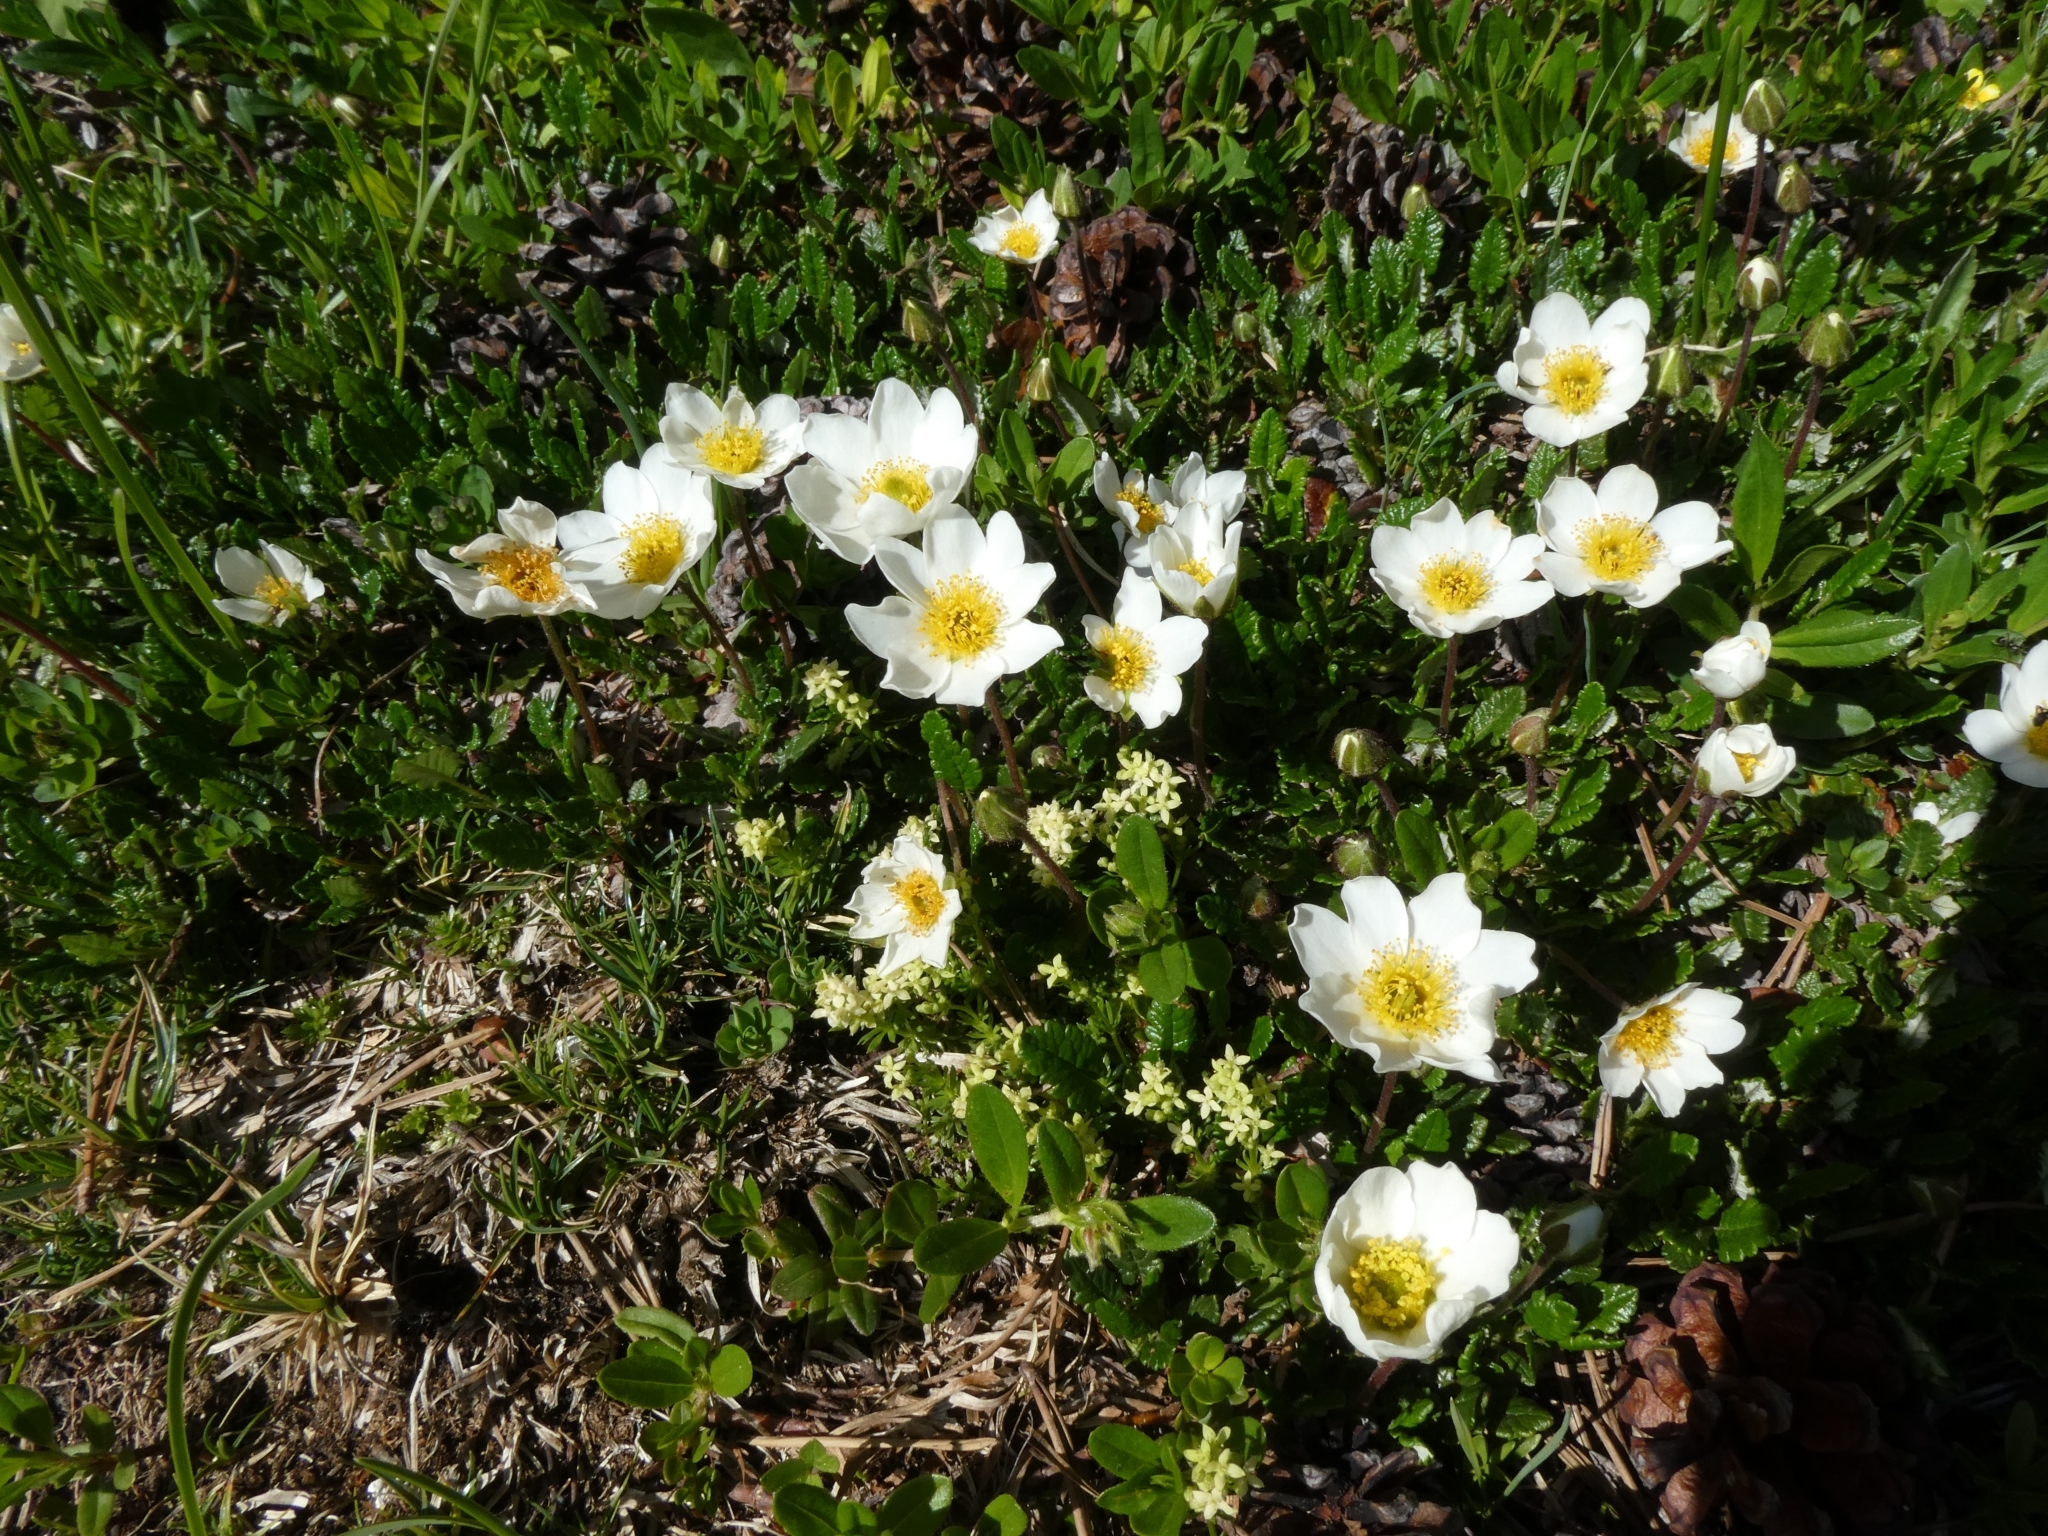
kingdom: Plantae
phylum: Tracheophyta
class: Magnoliopsida
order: Rosales
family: Rosaceae
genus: Dryas
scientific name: Dryas octopetala
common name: Eight-petal mountain-avens
